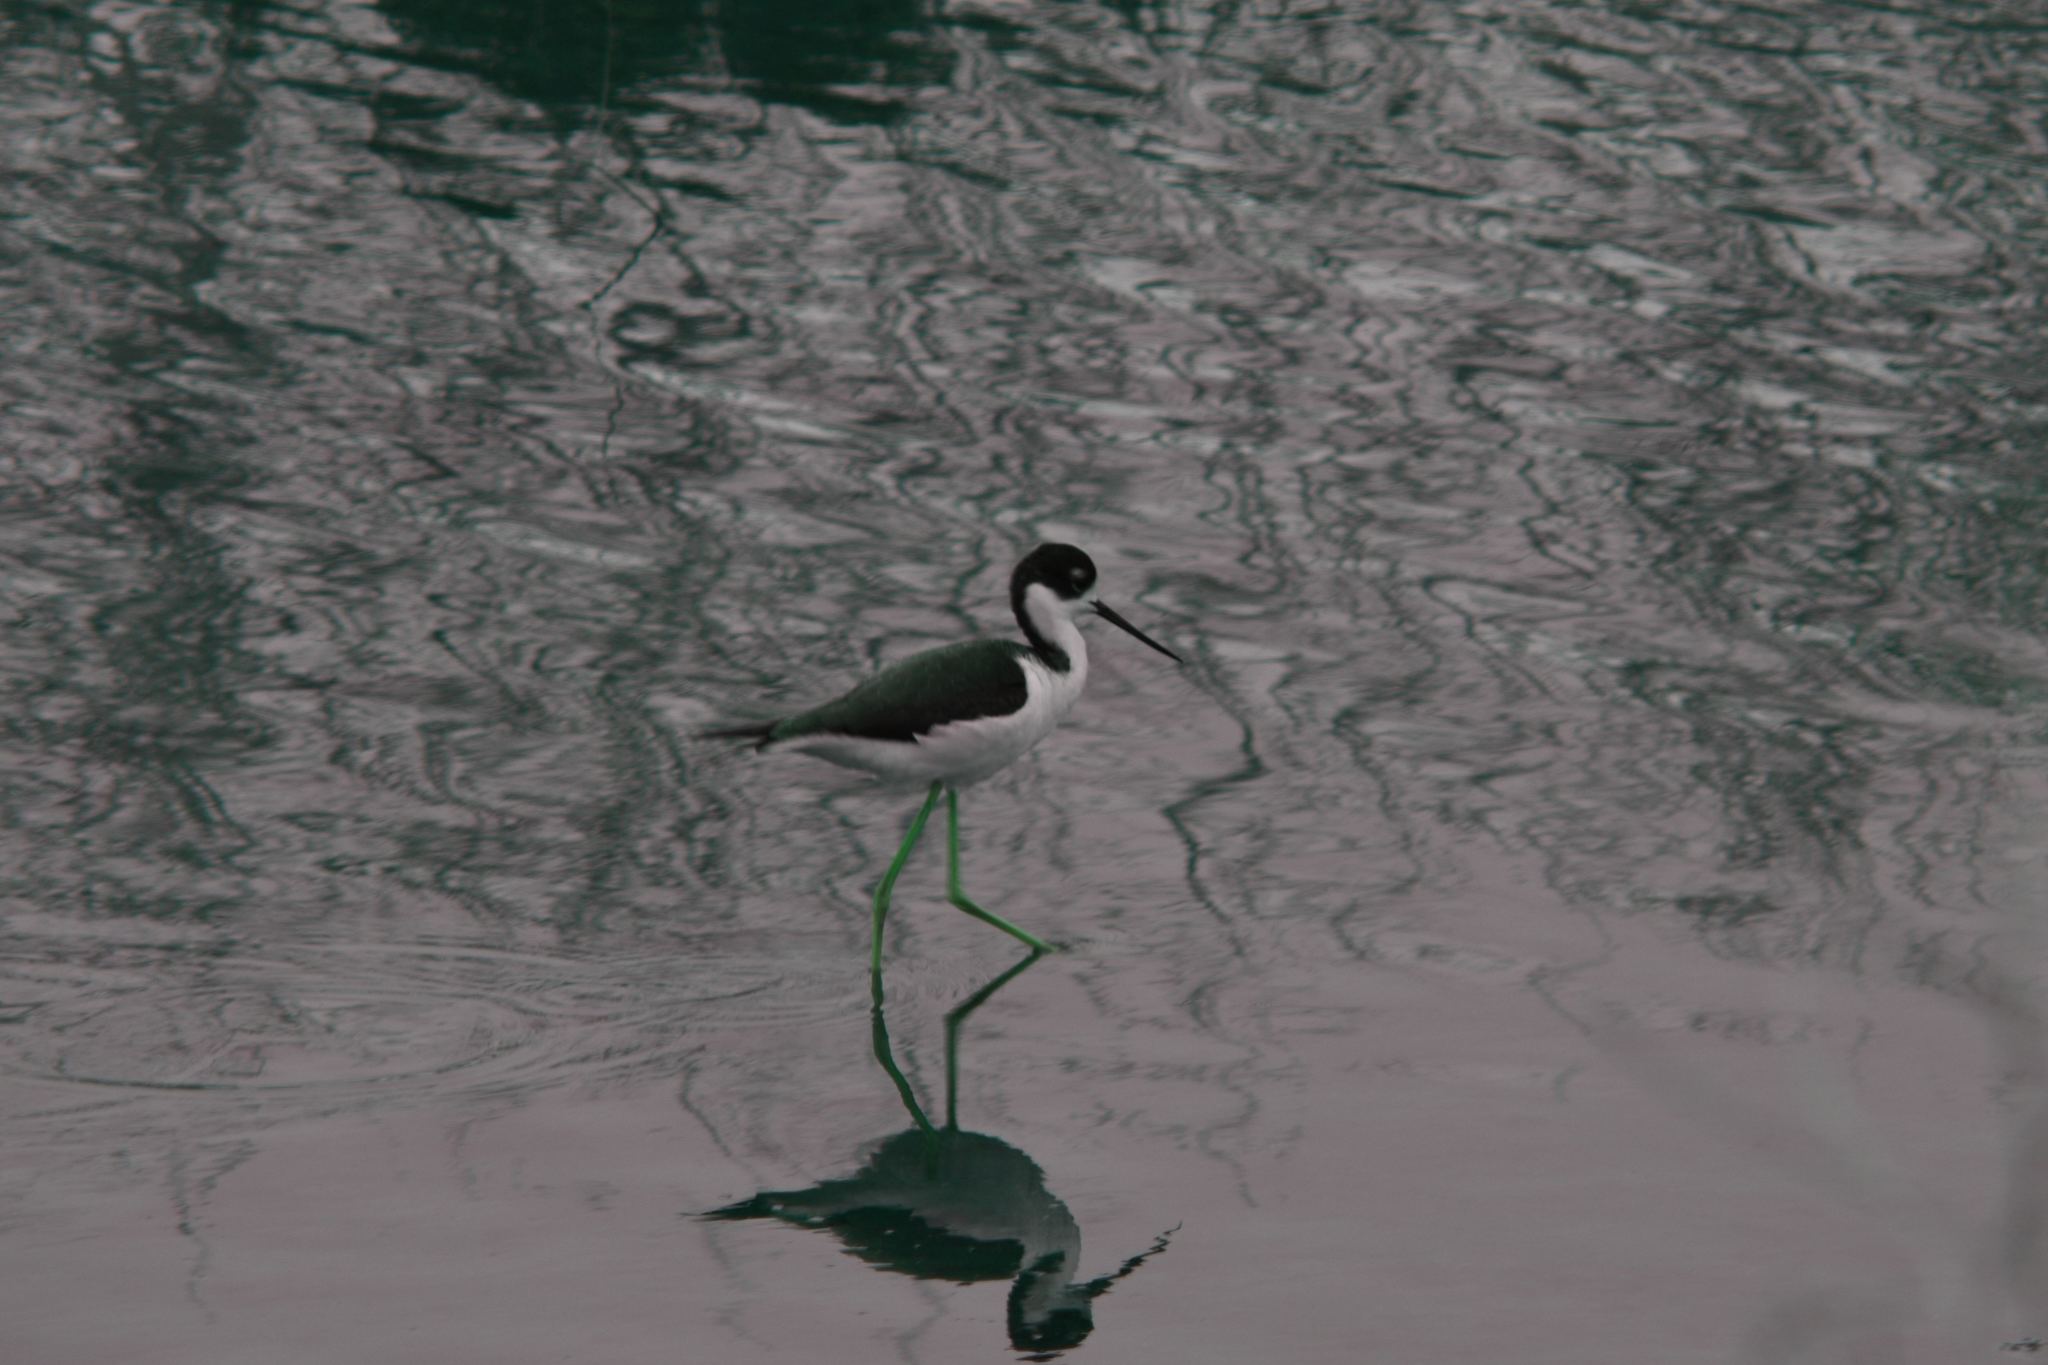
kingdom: Animalia
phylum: Chordata
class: Aves
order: Charadriiformes
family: Recurvirostridae
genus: Himantopus
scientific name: Himantopus mexicanus
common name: Black-necked stilt
